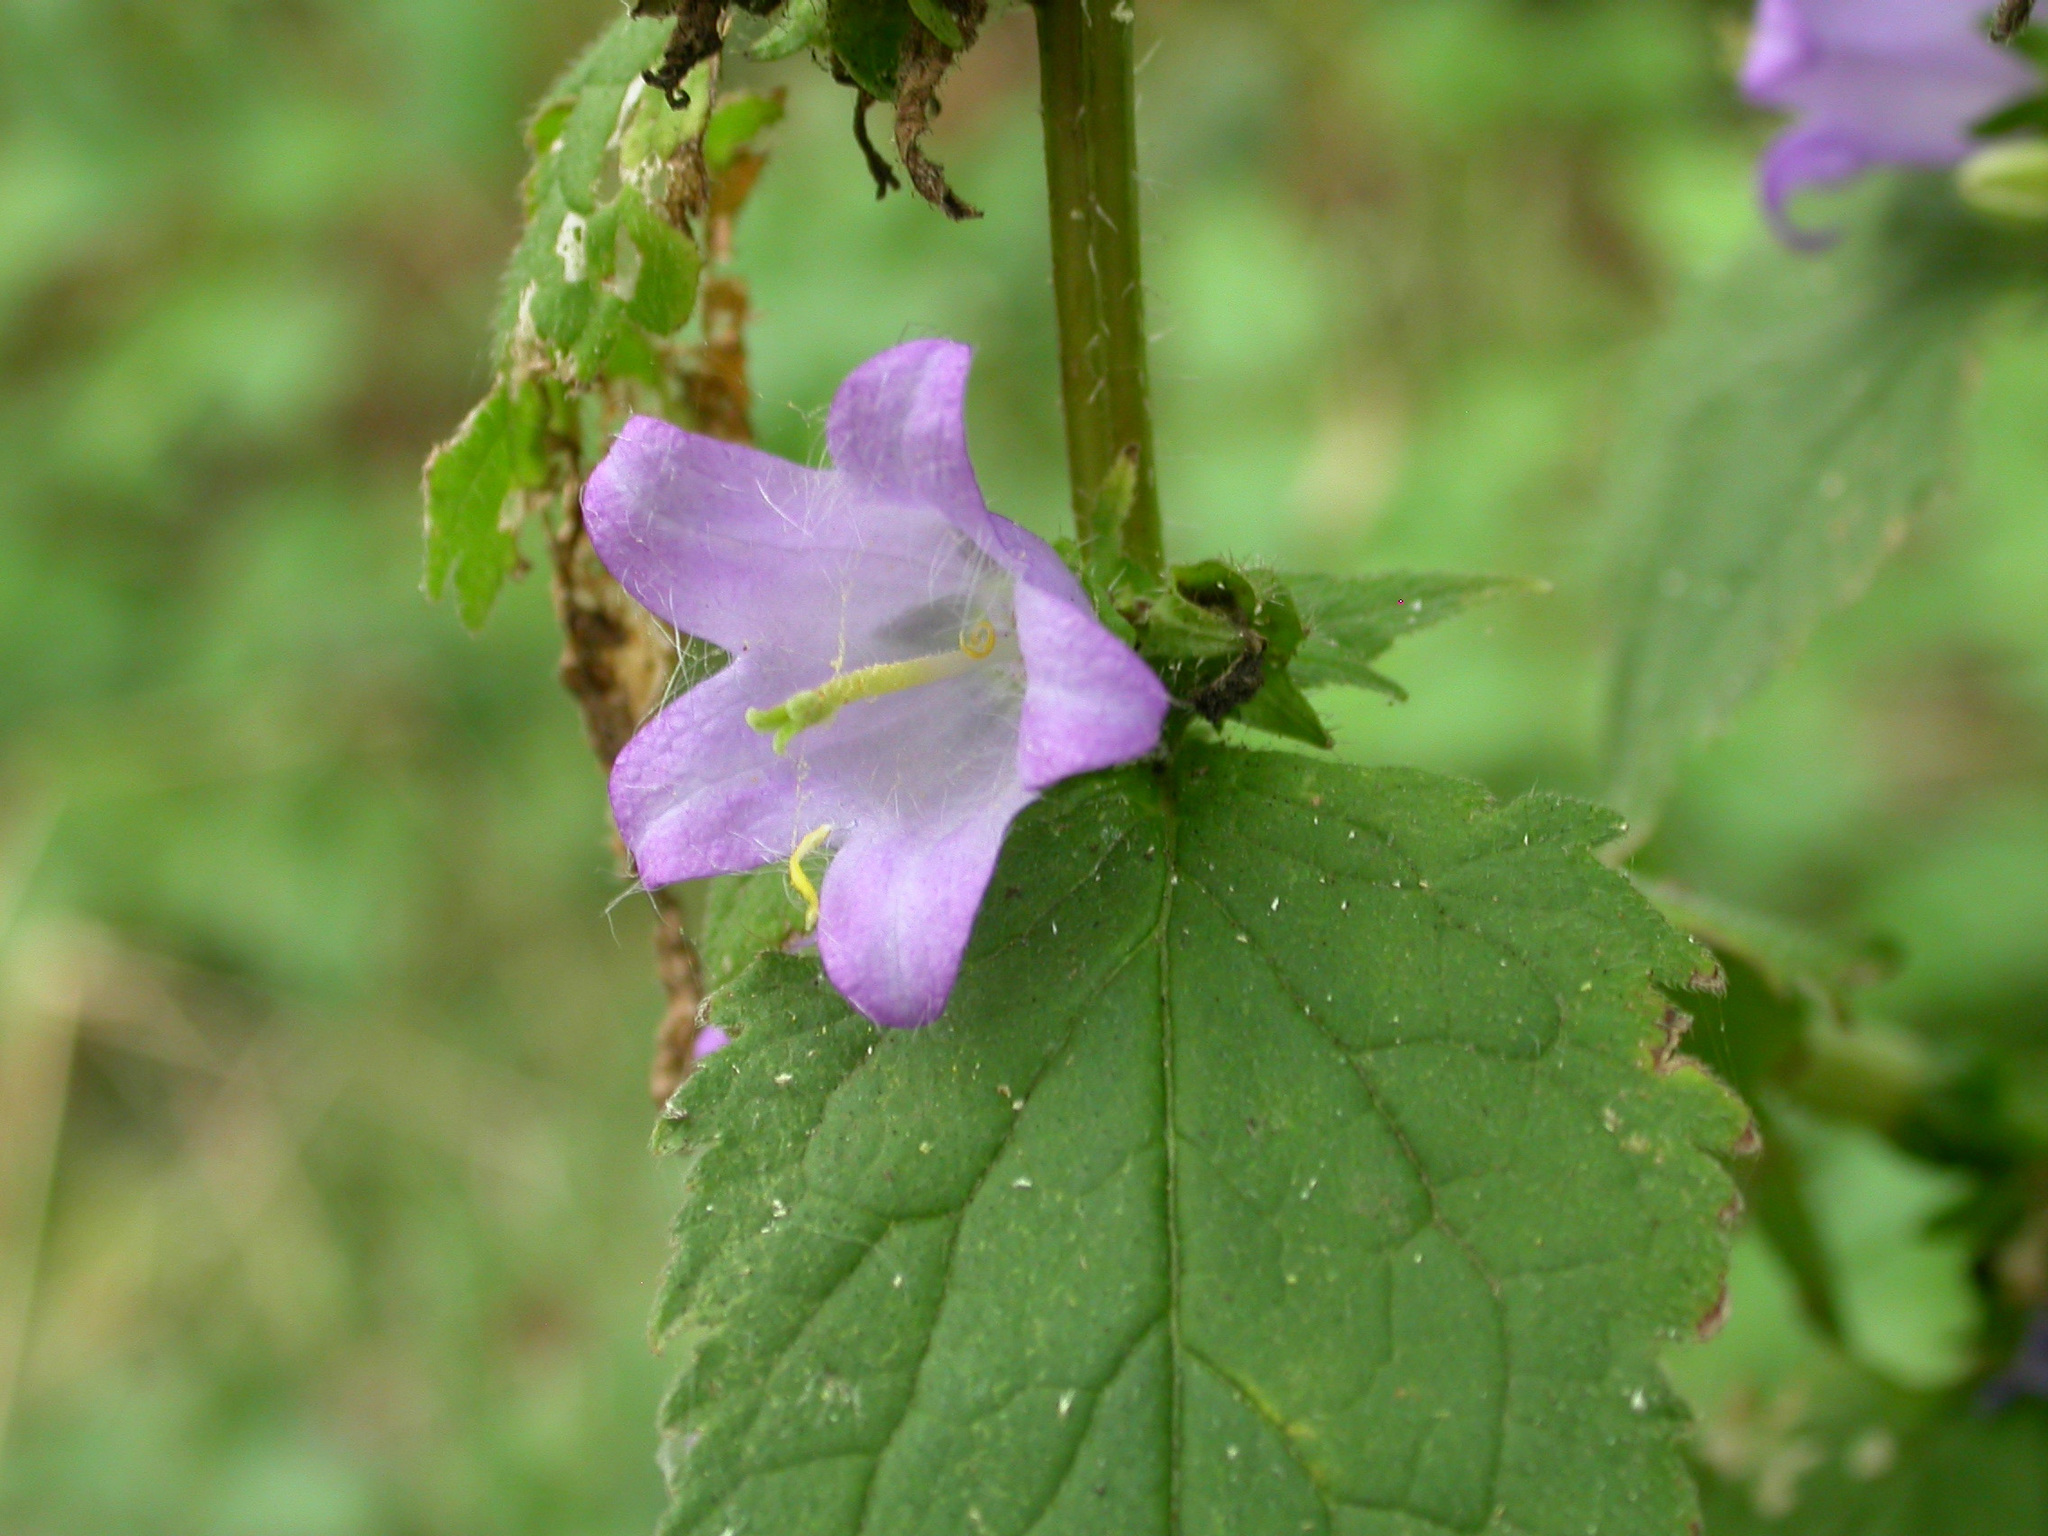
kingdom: Plantae
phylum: Tracheophyta
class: Magnoliopsida
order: Asterales
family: Campanulaceae
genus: Campanula
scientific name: Campanula trachelium
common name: Nettle-leaved bellflower
